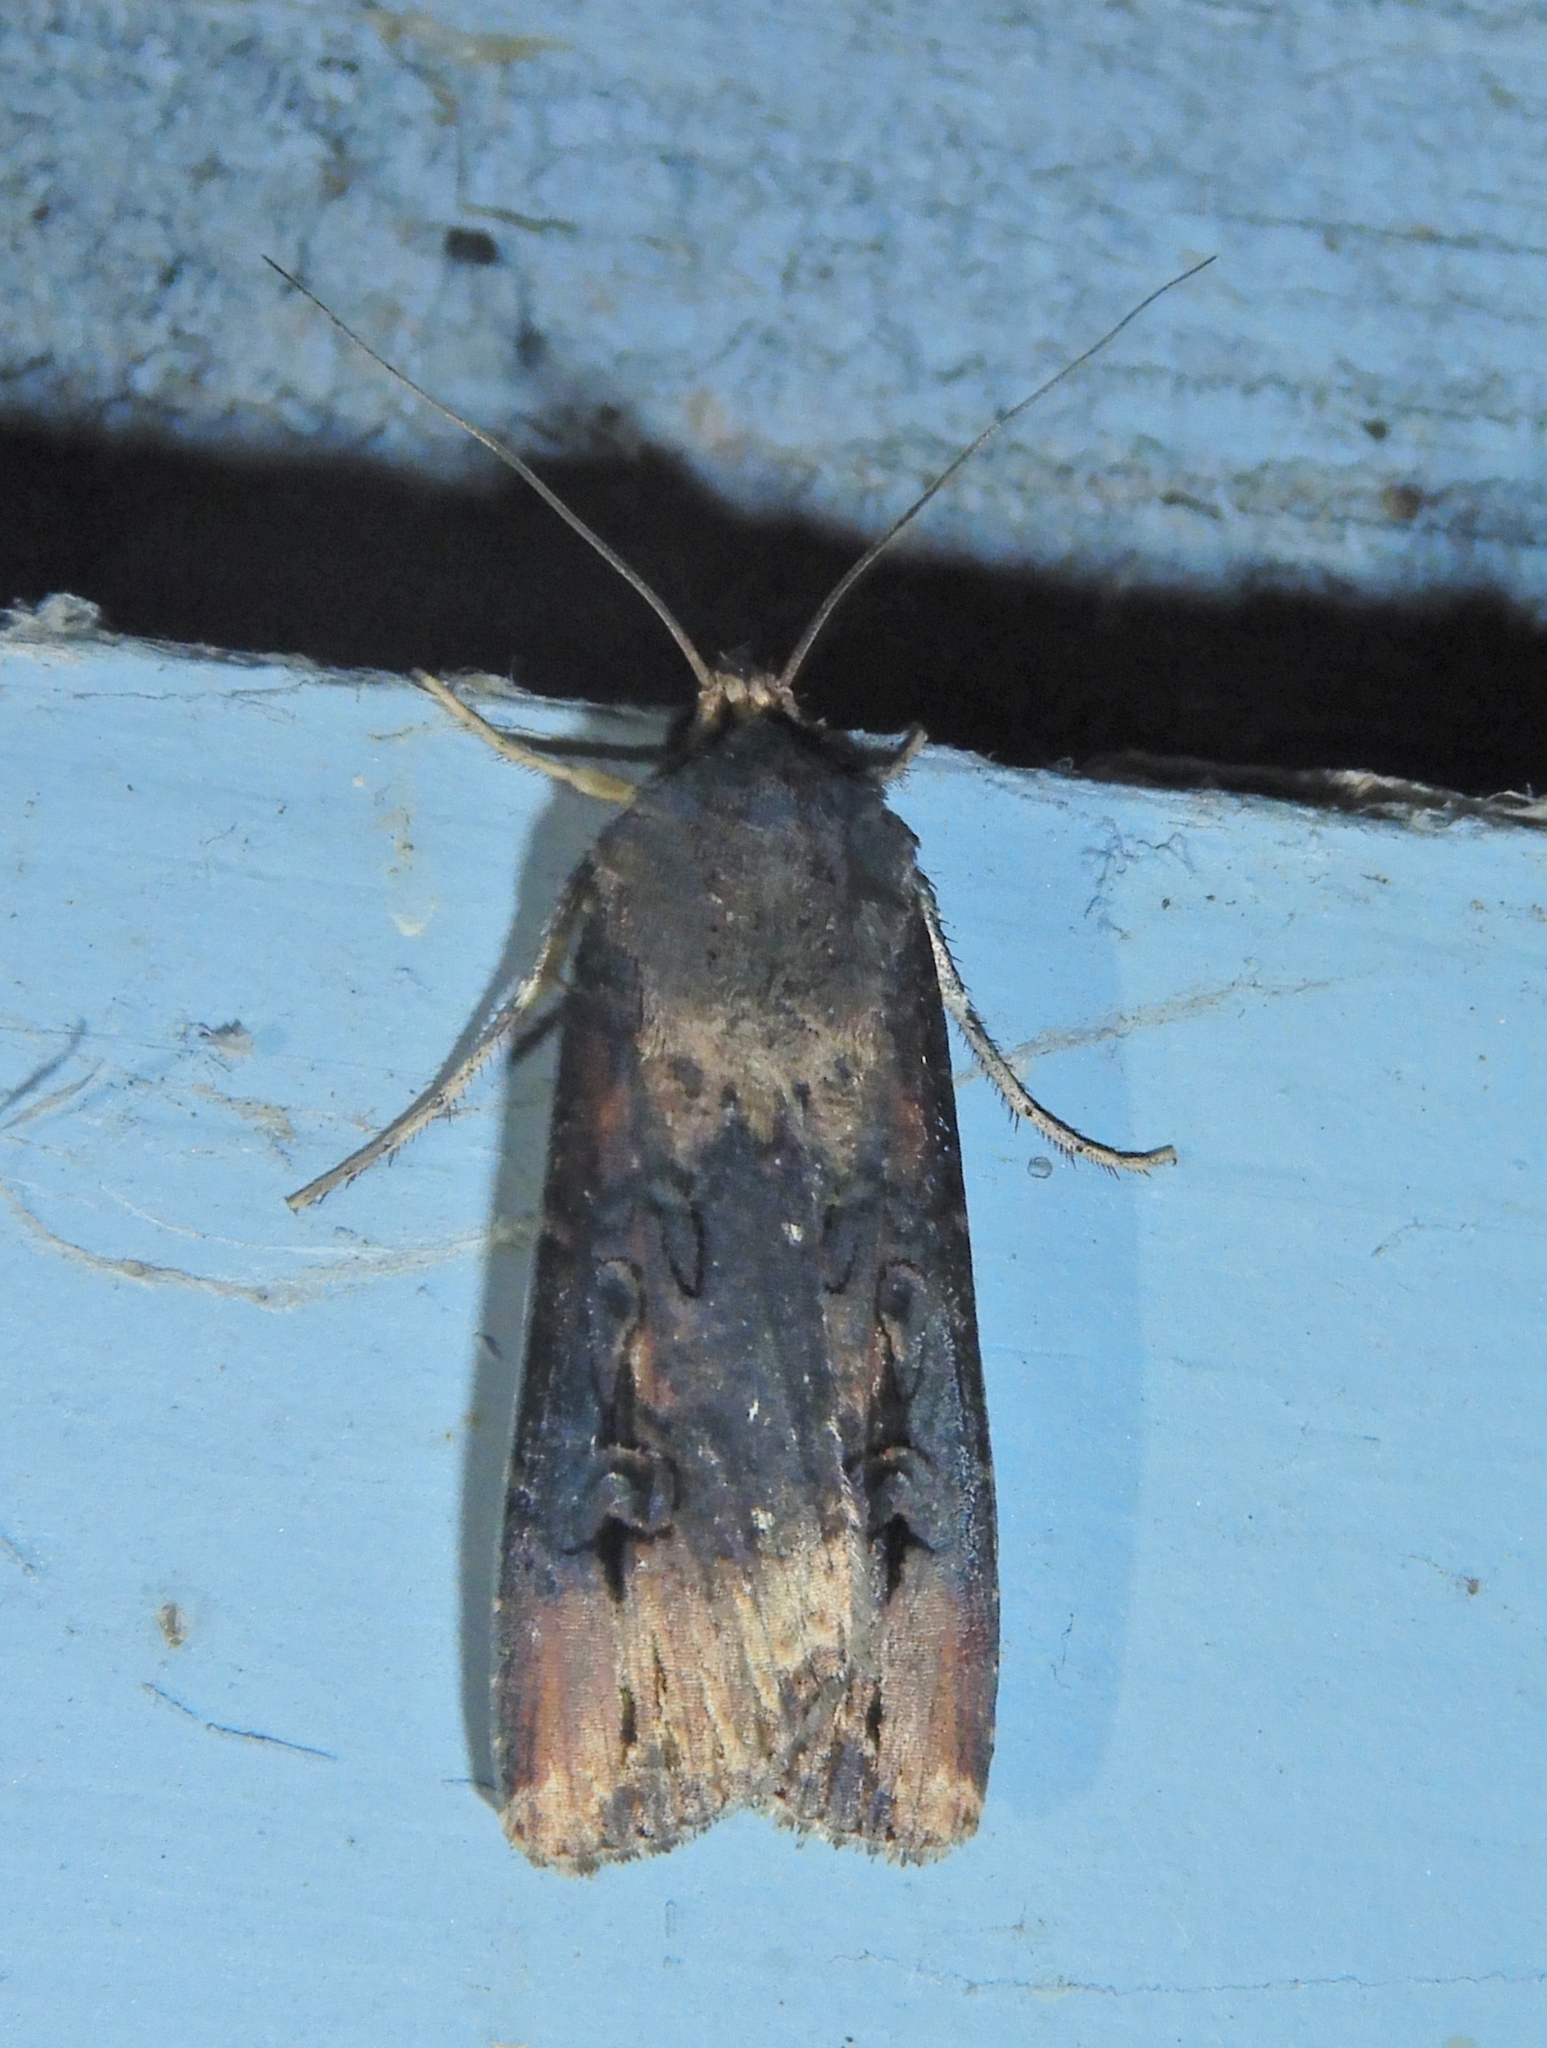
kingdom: Animalia
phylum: Arthropoda
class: Insecta
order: Lepidoptera
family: Noctuidae
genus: Agrotis
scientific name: Agrotis ipsilon
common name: Dark sword-grass
